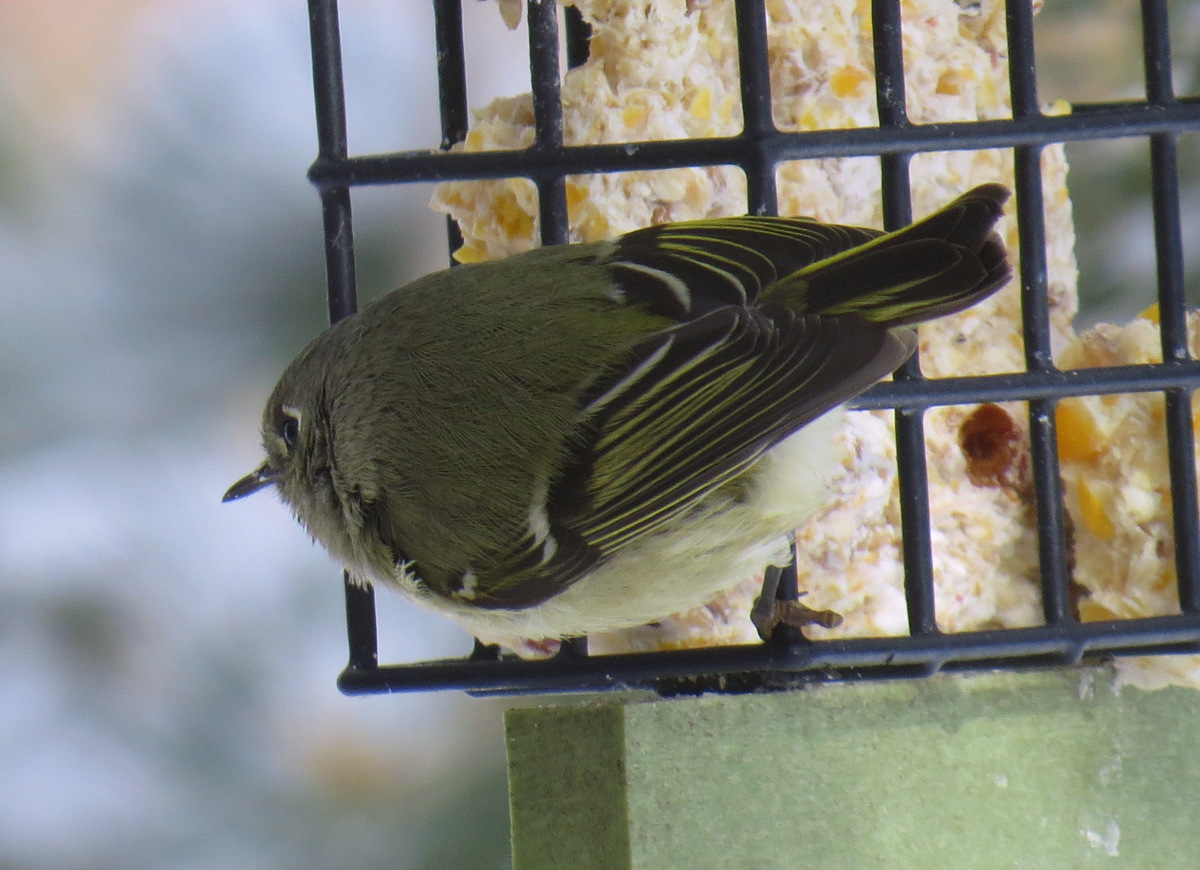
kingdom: Animalia
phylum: Chordata
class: Aves
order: Passeriformes
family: Regulidae
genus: Regulus
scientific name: Regulus calendula
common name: Ruby-crowned kinglet
